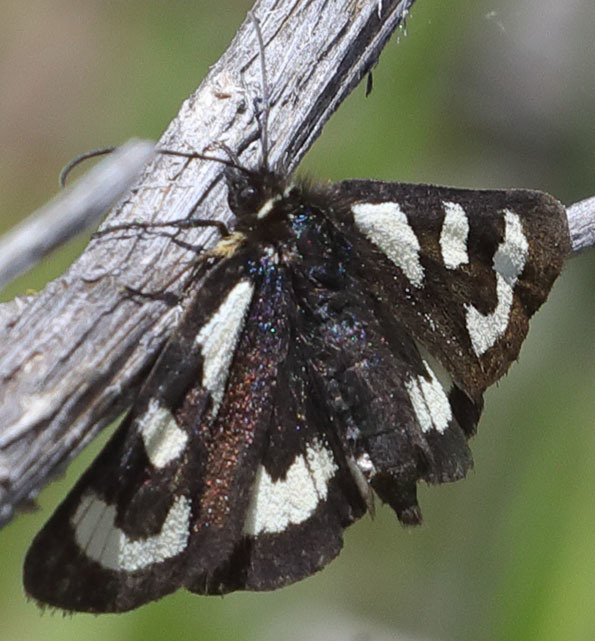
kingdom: Animalia
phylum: Arthropoda
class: Insecta
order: Lepidoptera
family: Noctuidae
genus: Alypia
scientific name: Alypia mariposa
